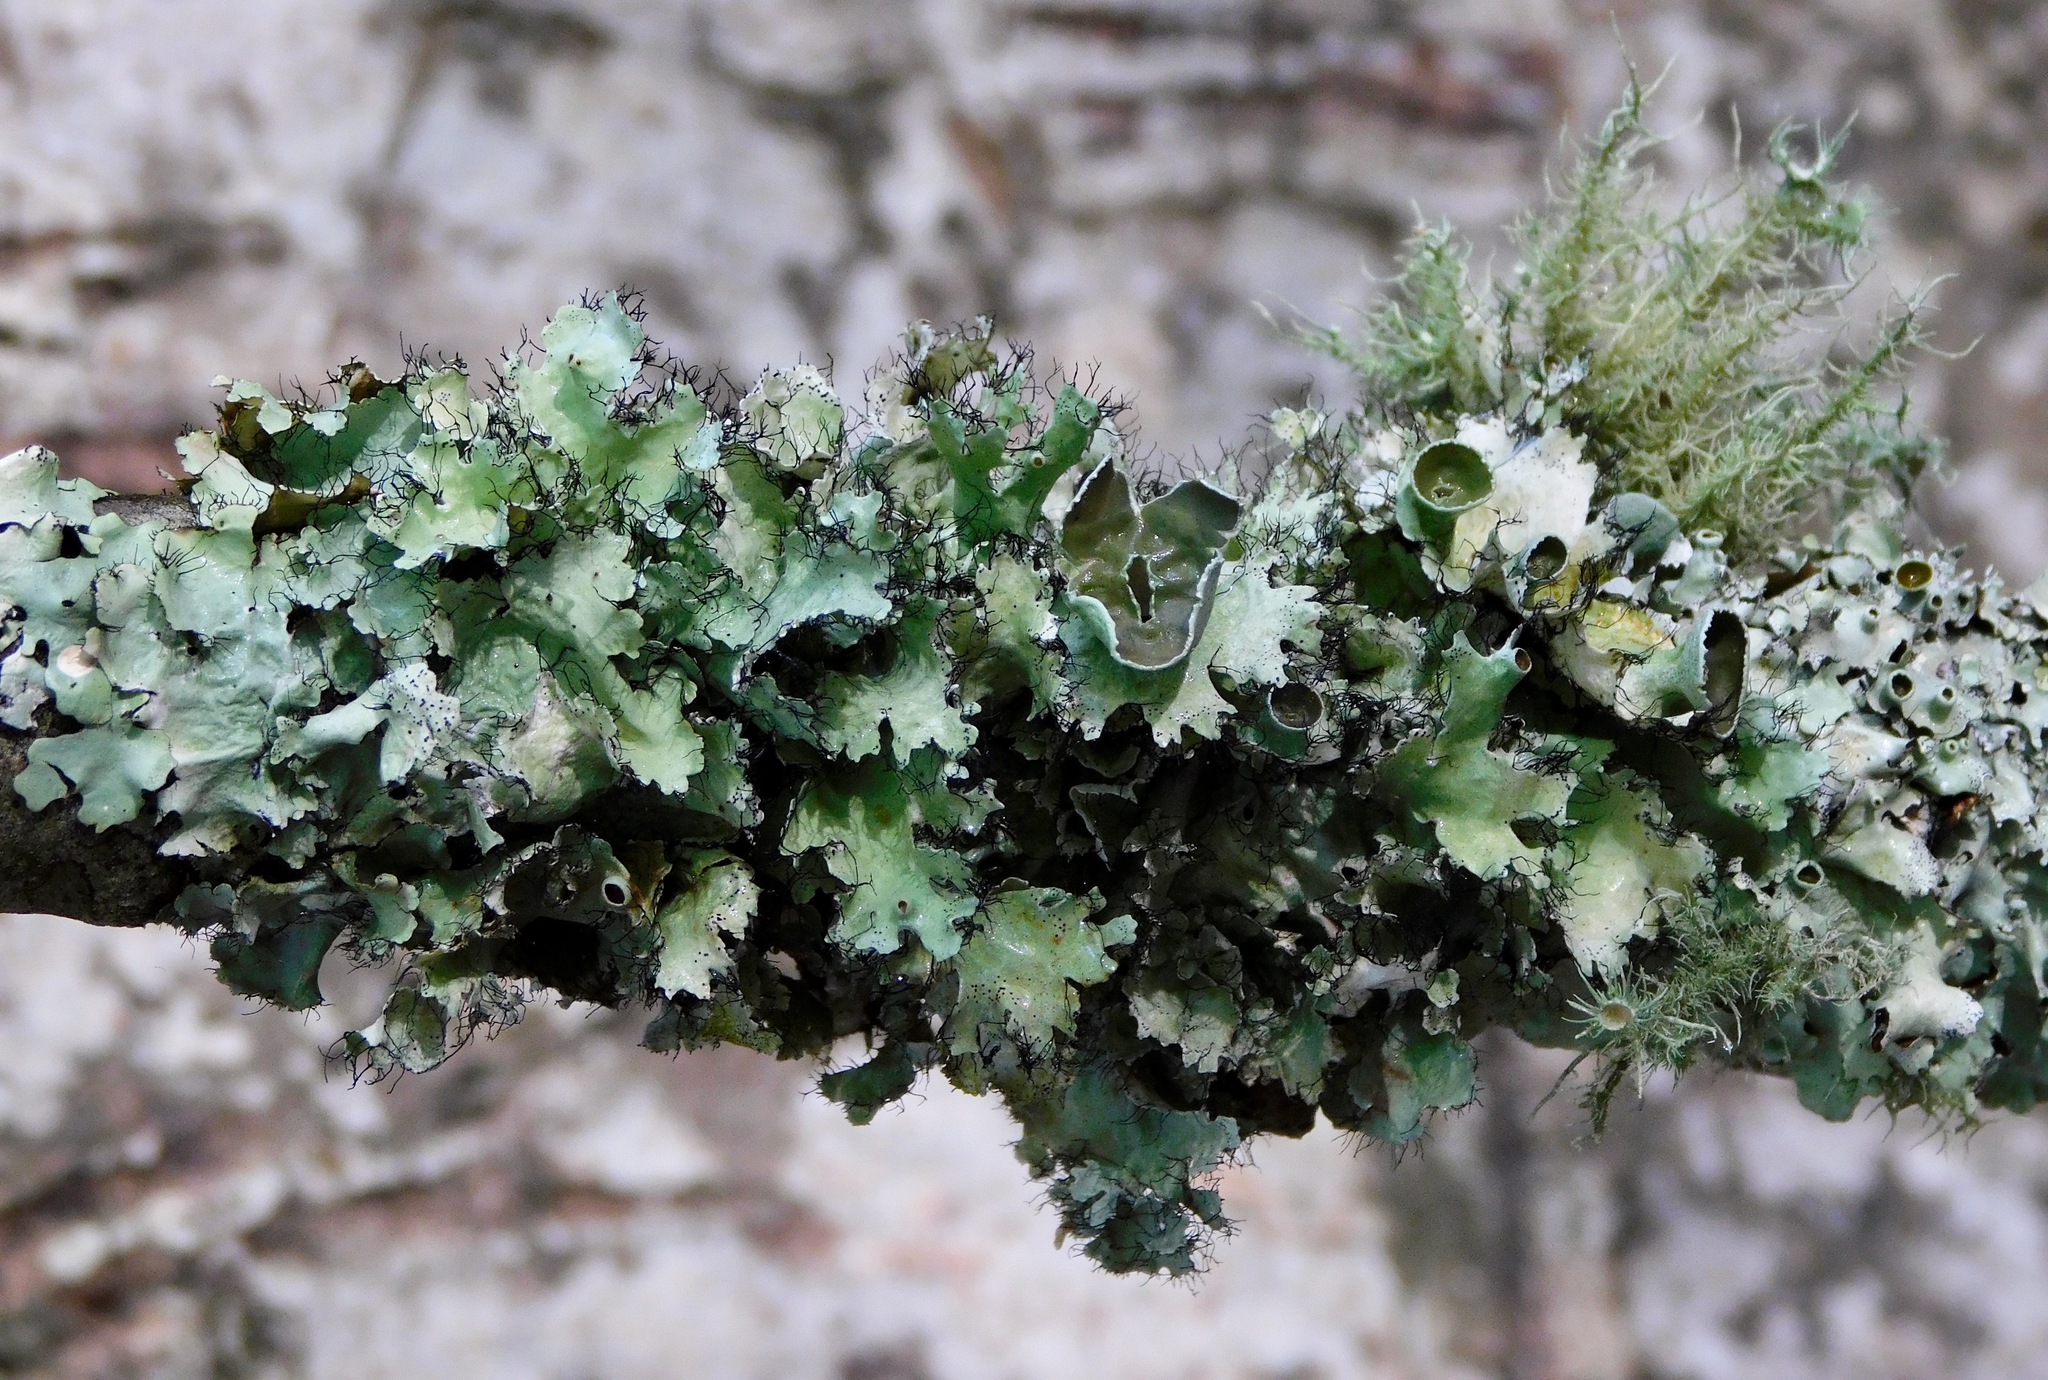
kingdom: Fungi
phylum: Ascomycota
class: Lecanoromycetes
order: Lecanorales
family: Parmeliaceae
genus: Parmotrema
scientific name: Parmotrema subrigidum
